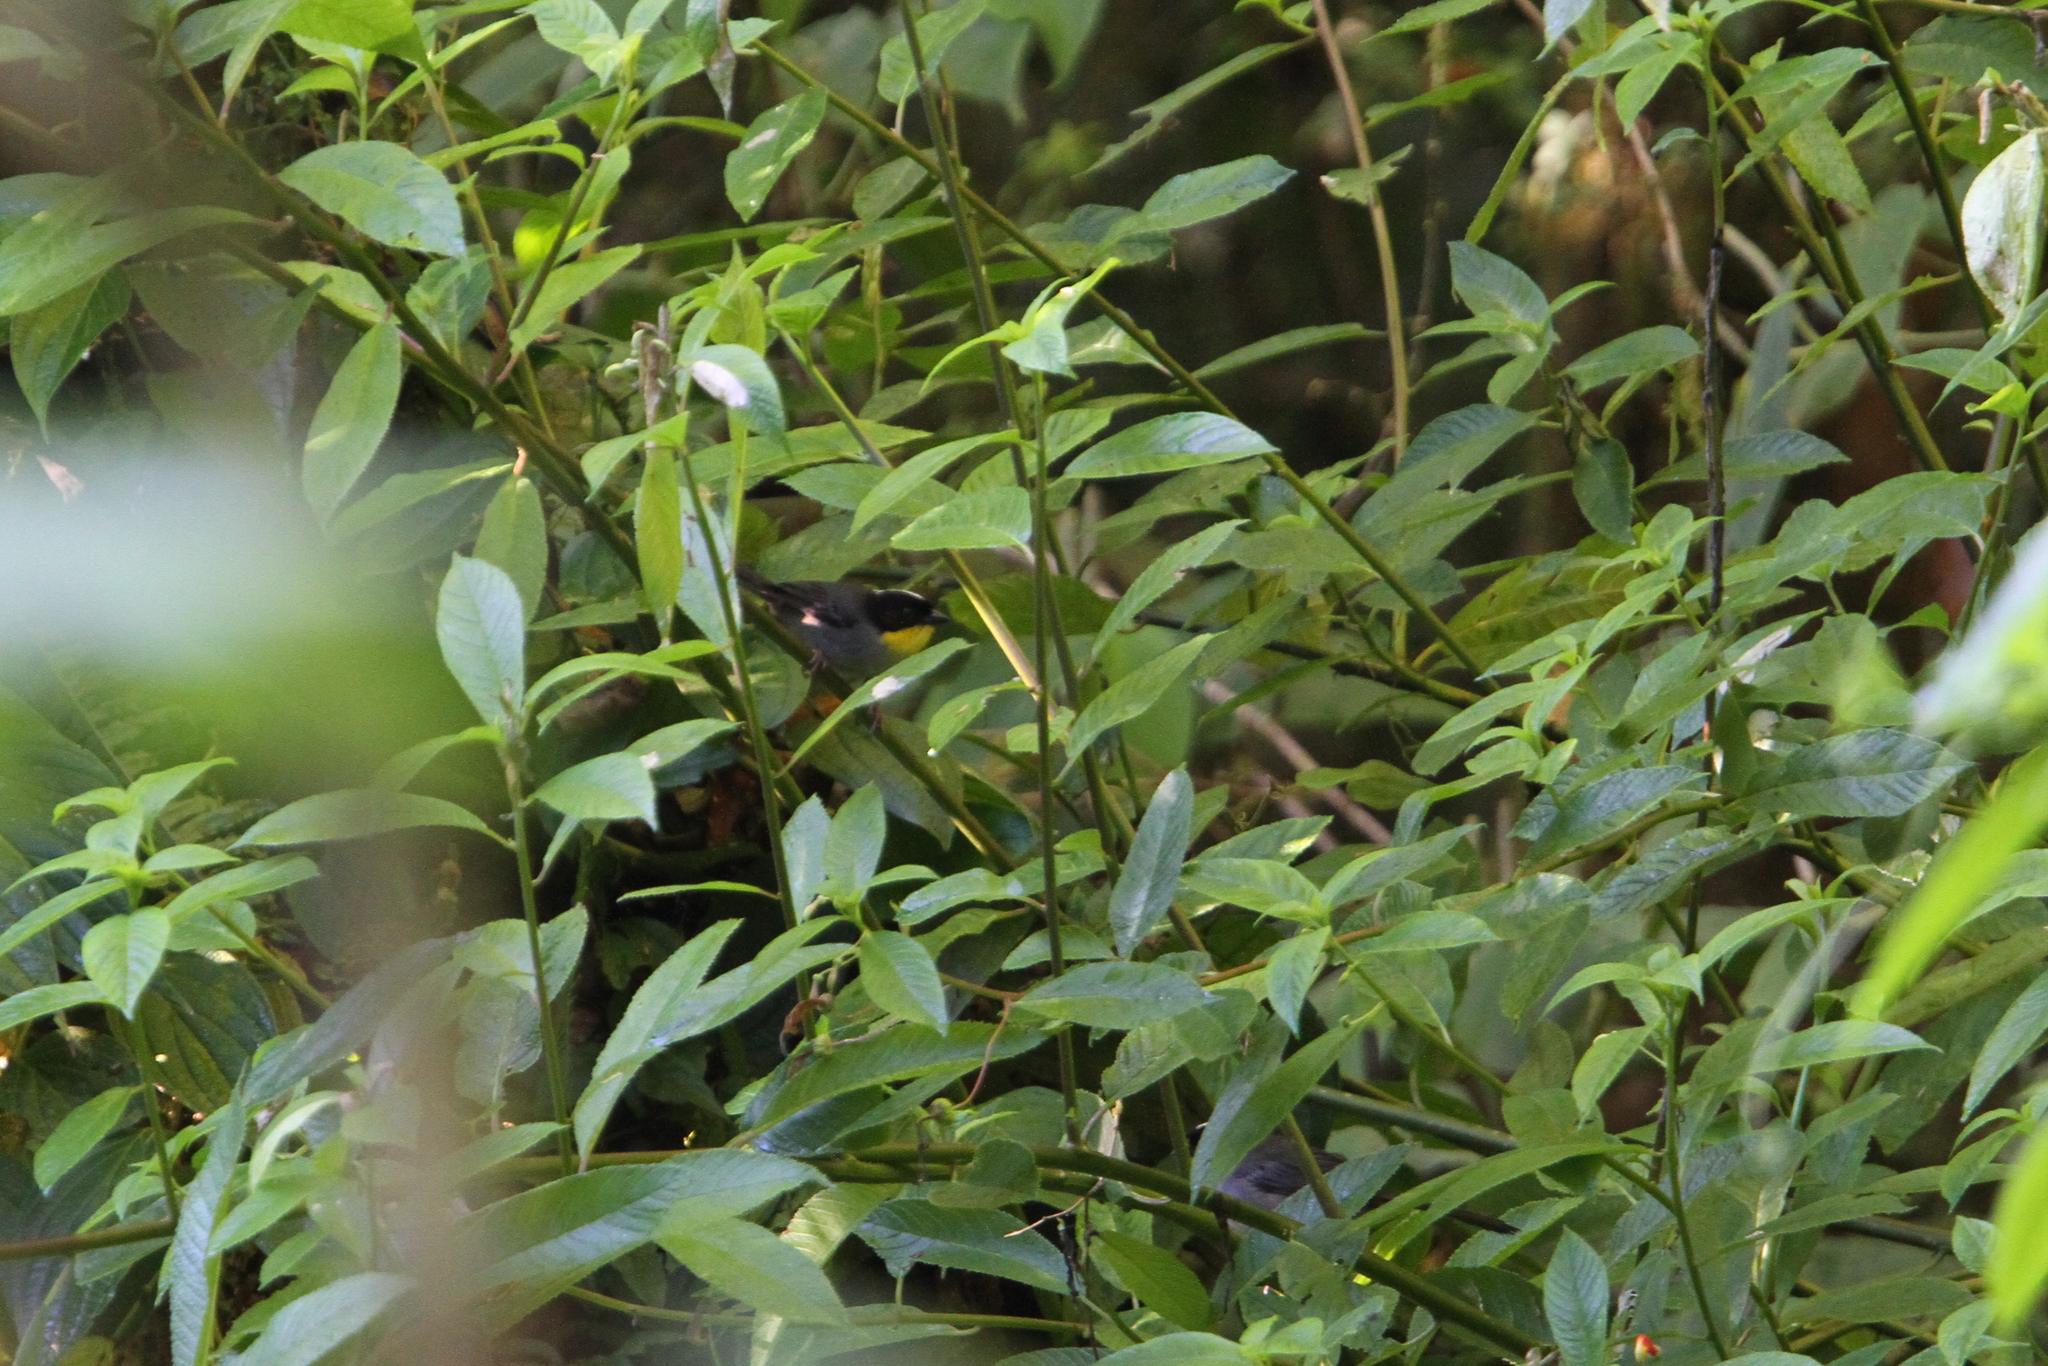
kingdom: Animalia
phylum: Chordata
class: Aves
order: Passeriformes
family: Passerellidae
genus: Atlapetes
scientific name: Atlapetes albinucha
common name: White-naped brush-finch
